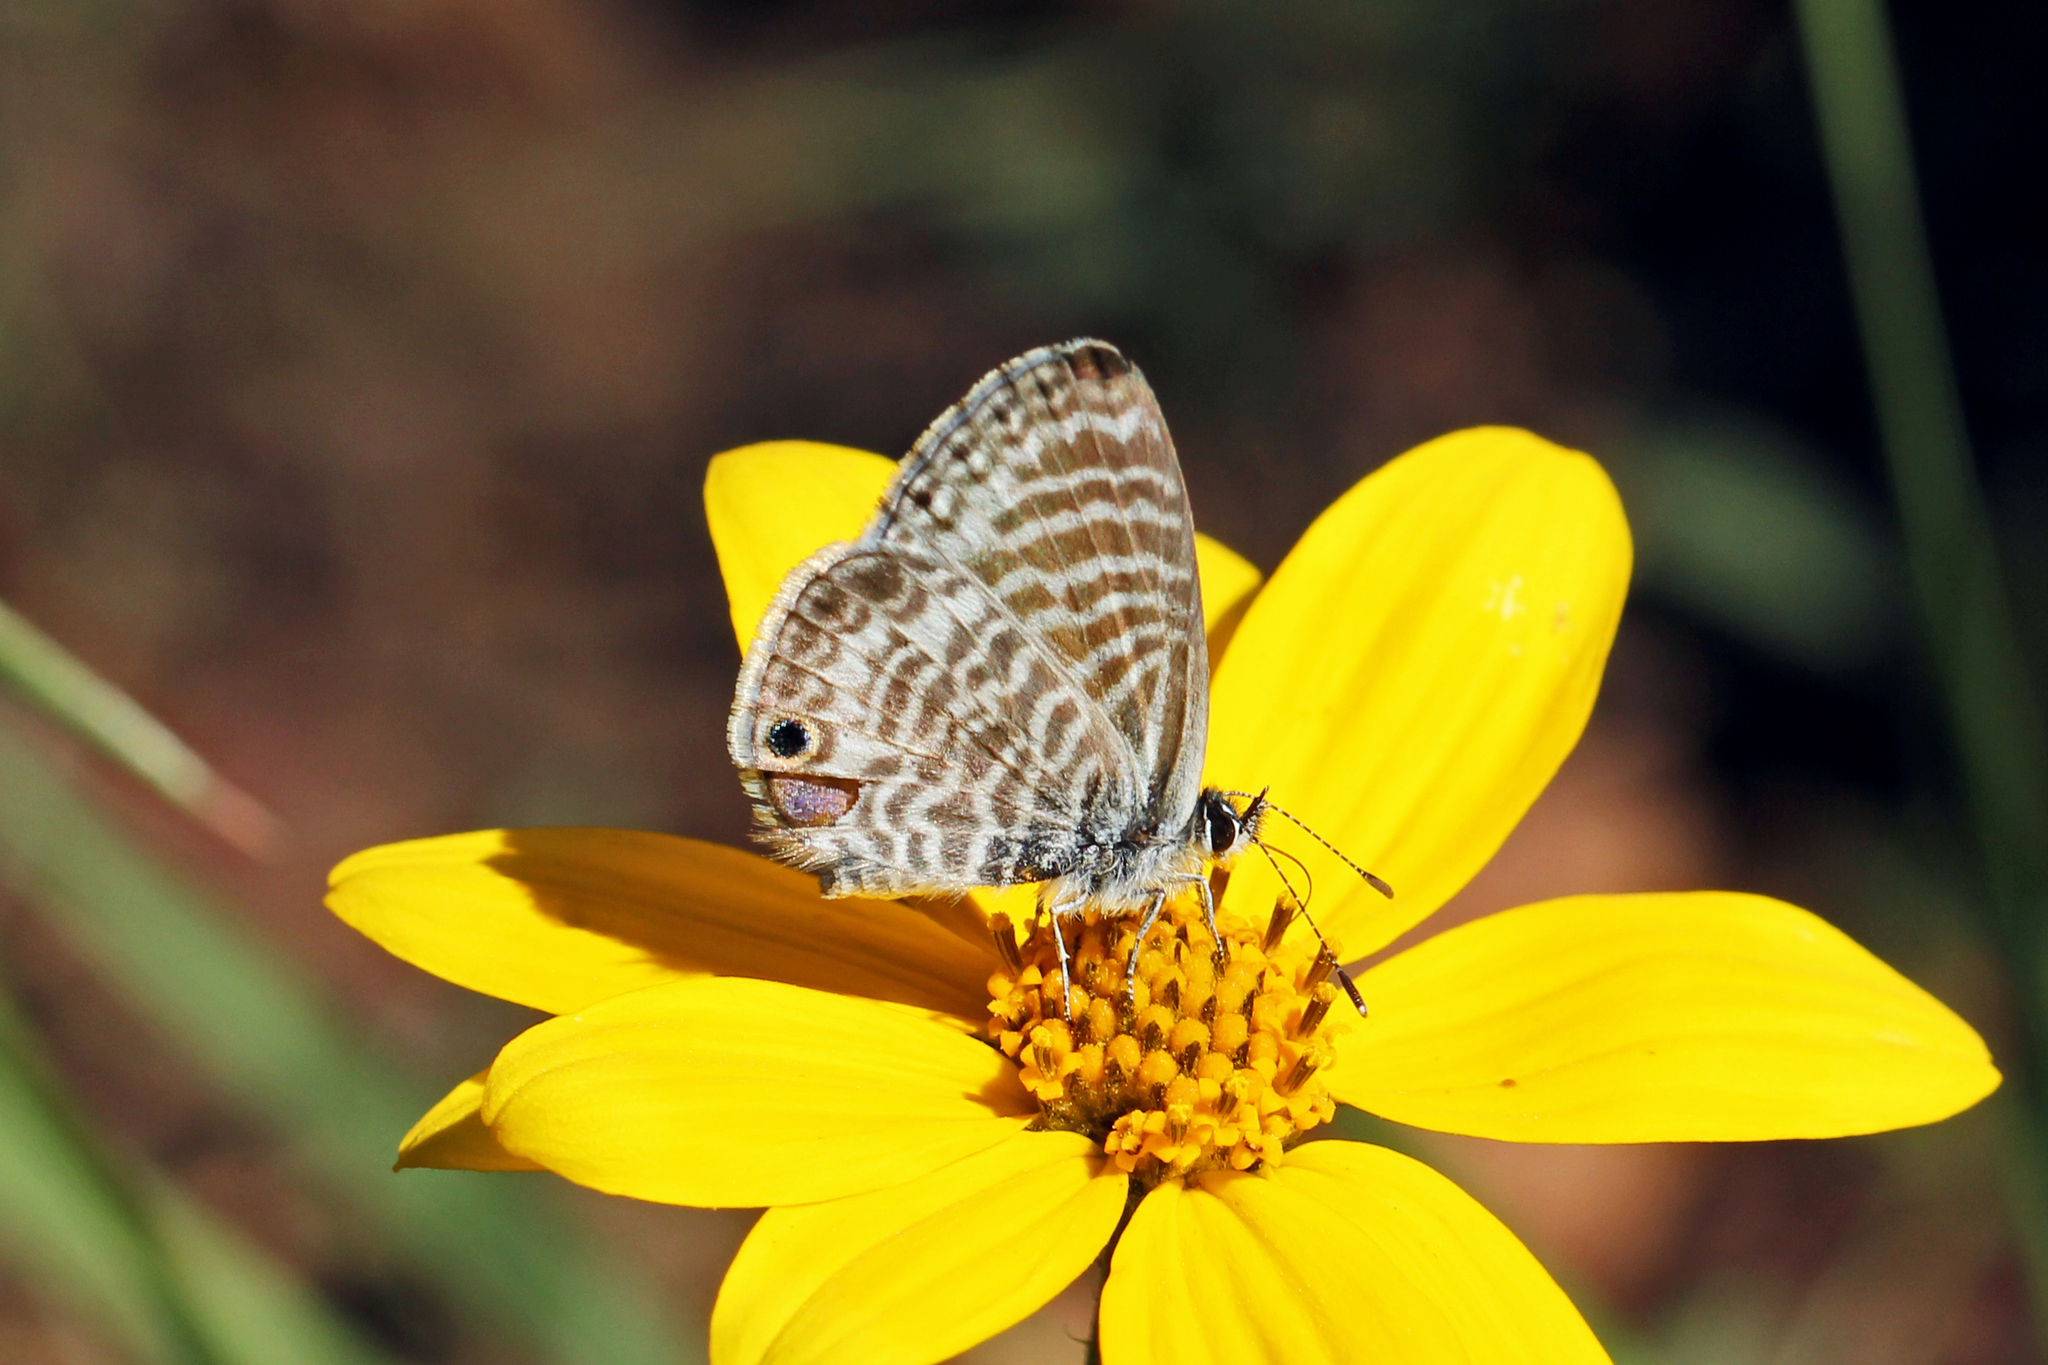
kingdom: Animalia
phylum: Arthropoda
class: Insecta
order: Lepidoptera
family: Lycaenidae
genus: Leptotes
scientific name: Leptotes marina
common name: Marine blue
